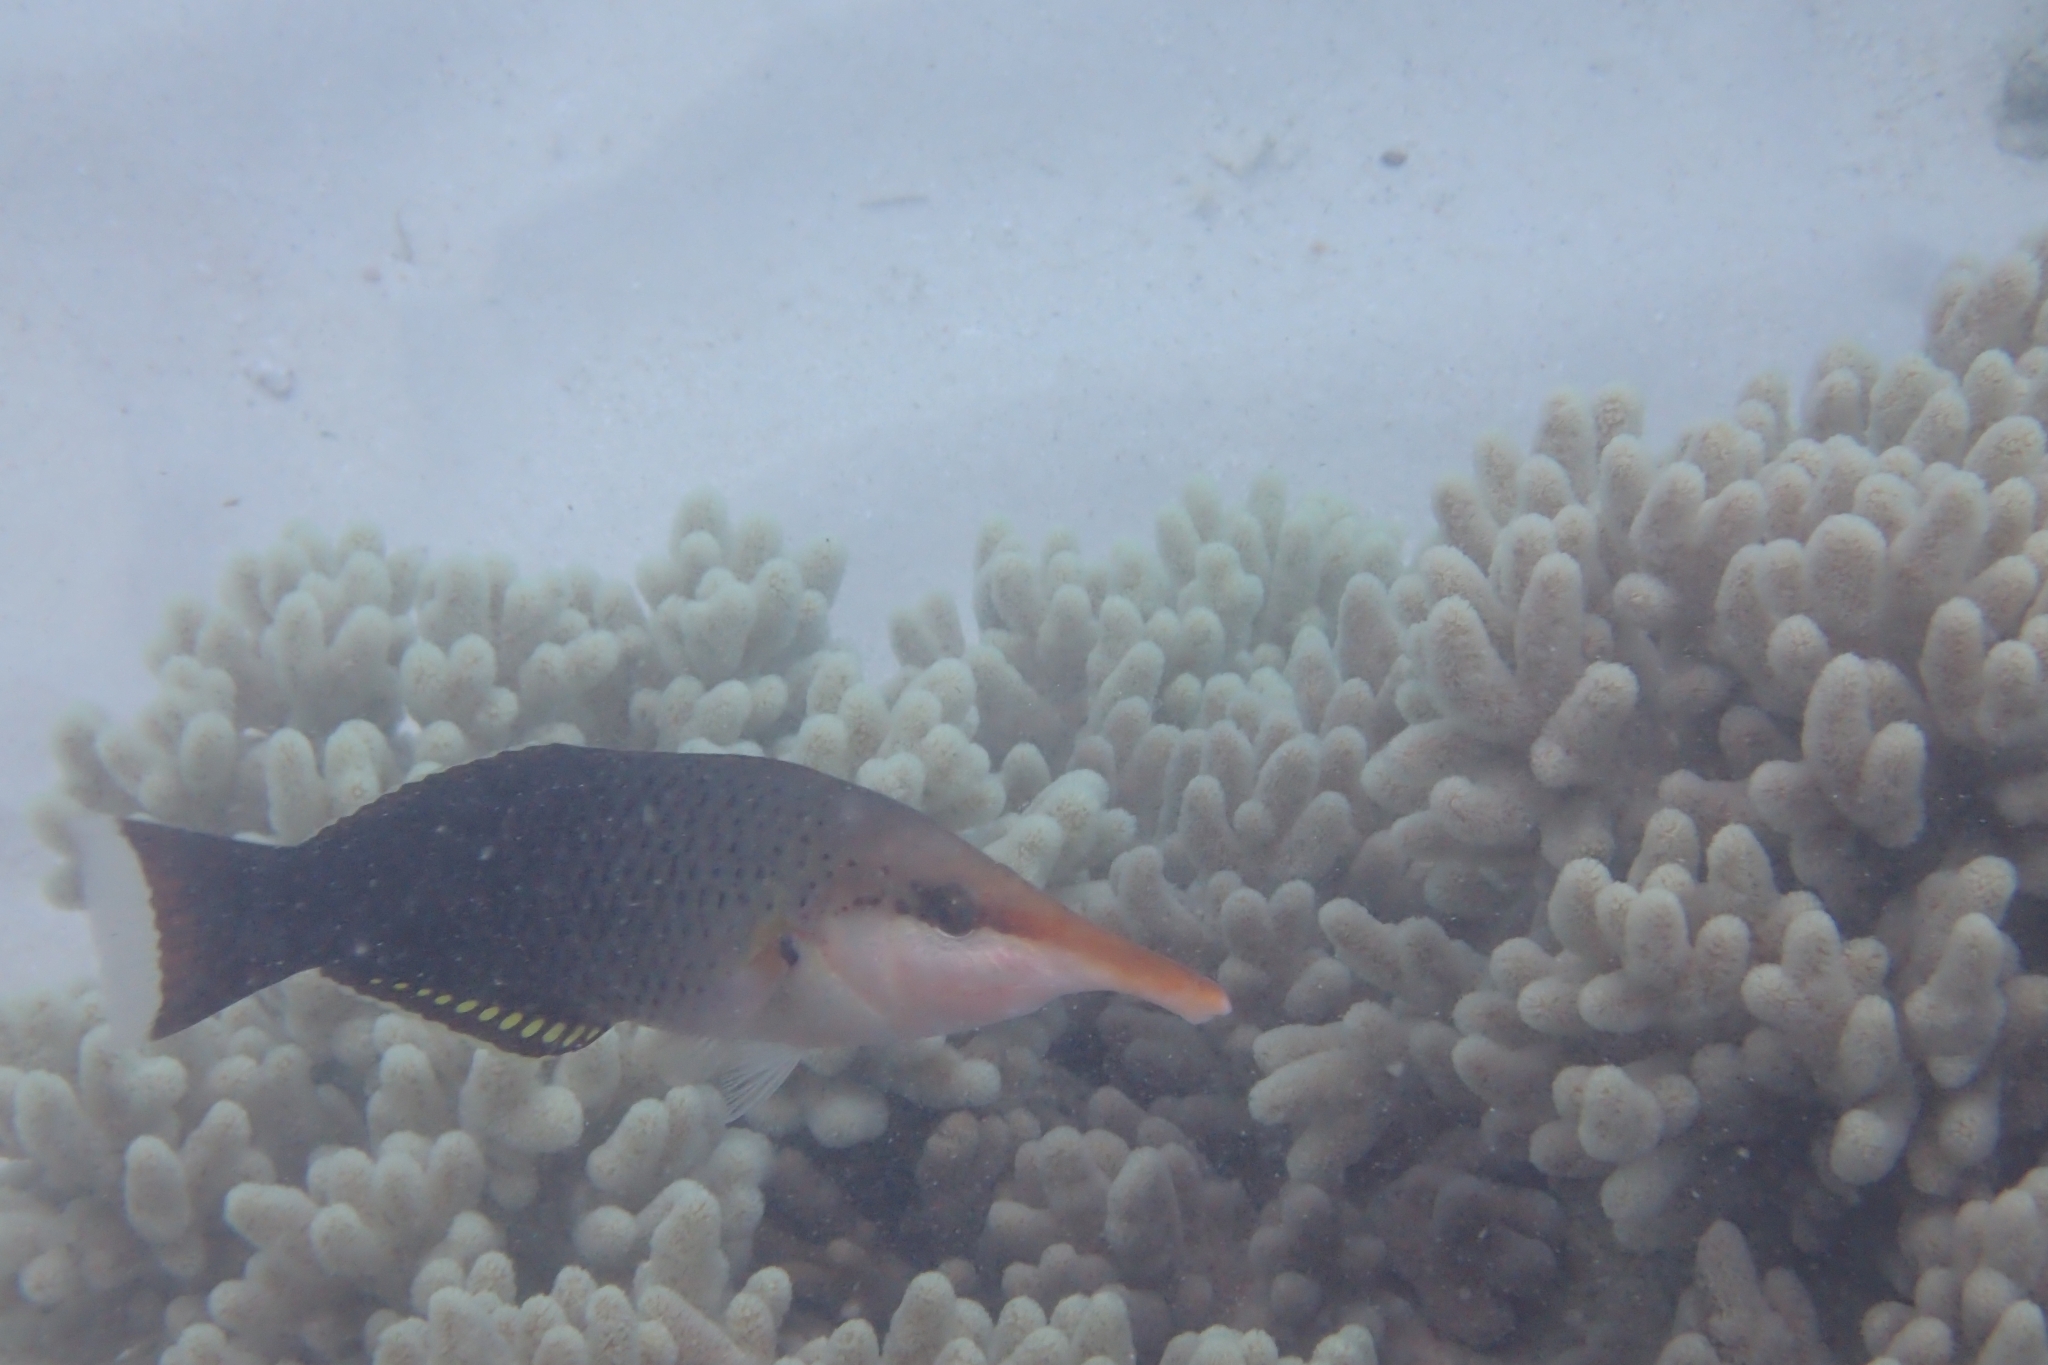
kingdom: Animalia
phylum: Chordata
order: Perciformes
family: Labridae
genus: Gomphosus
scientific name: Gomphosus varius
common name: Bird wrasse
